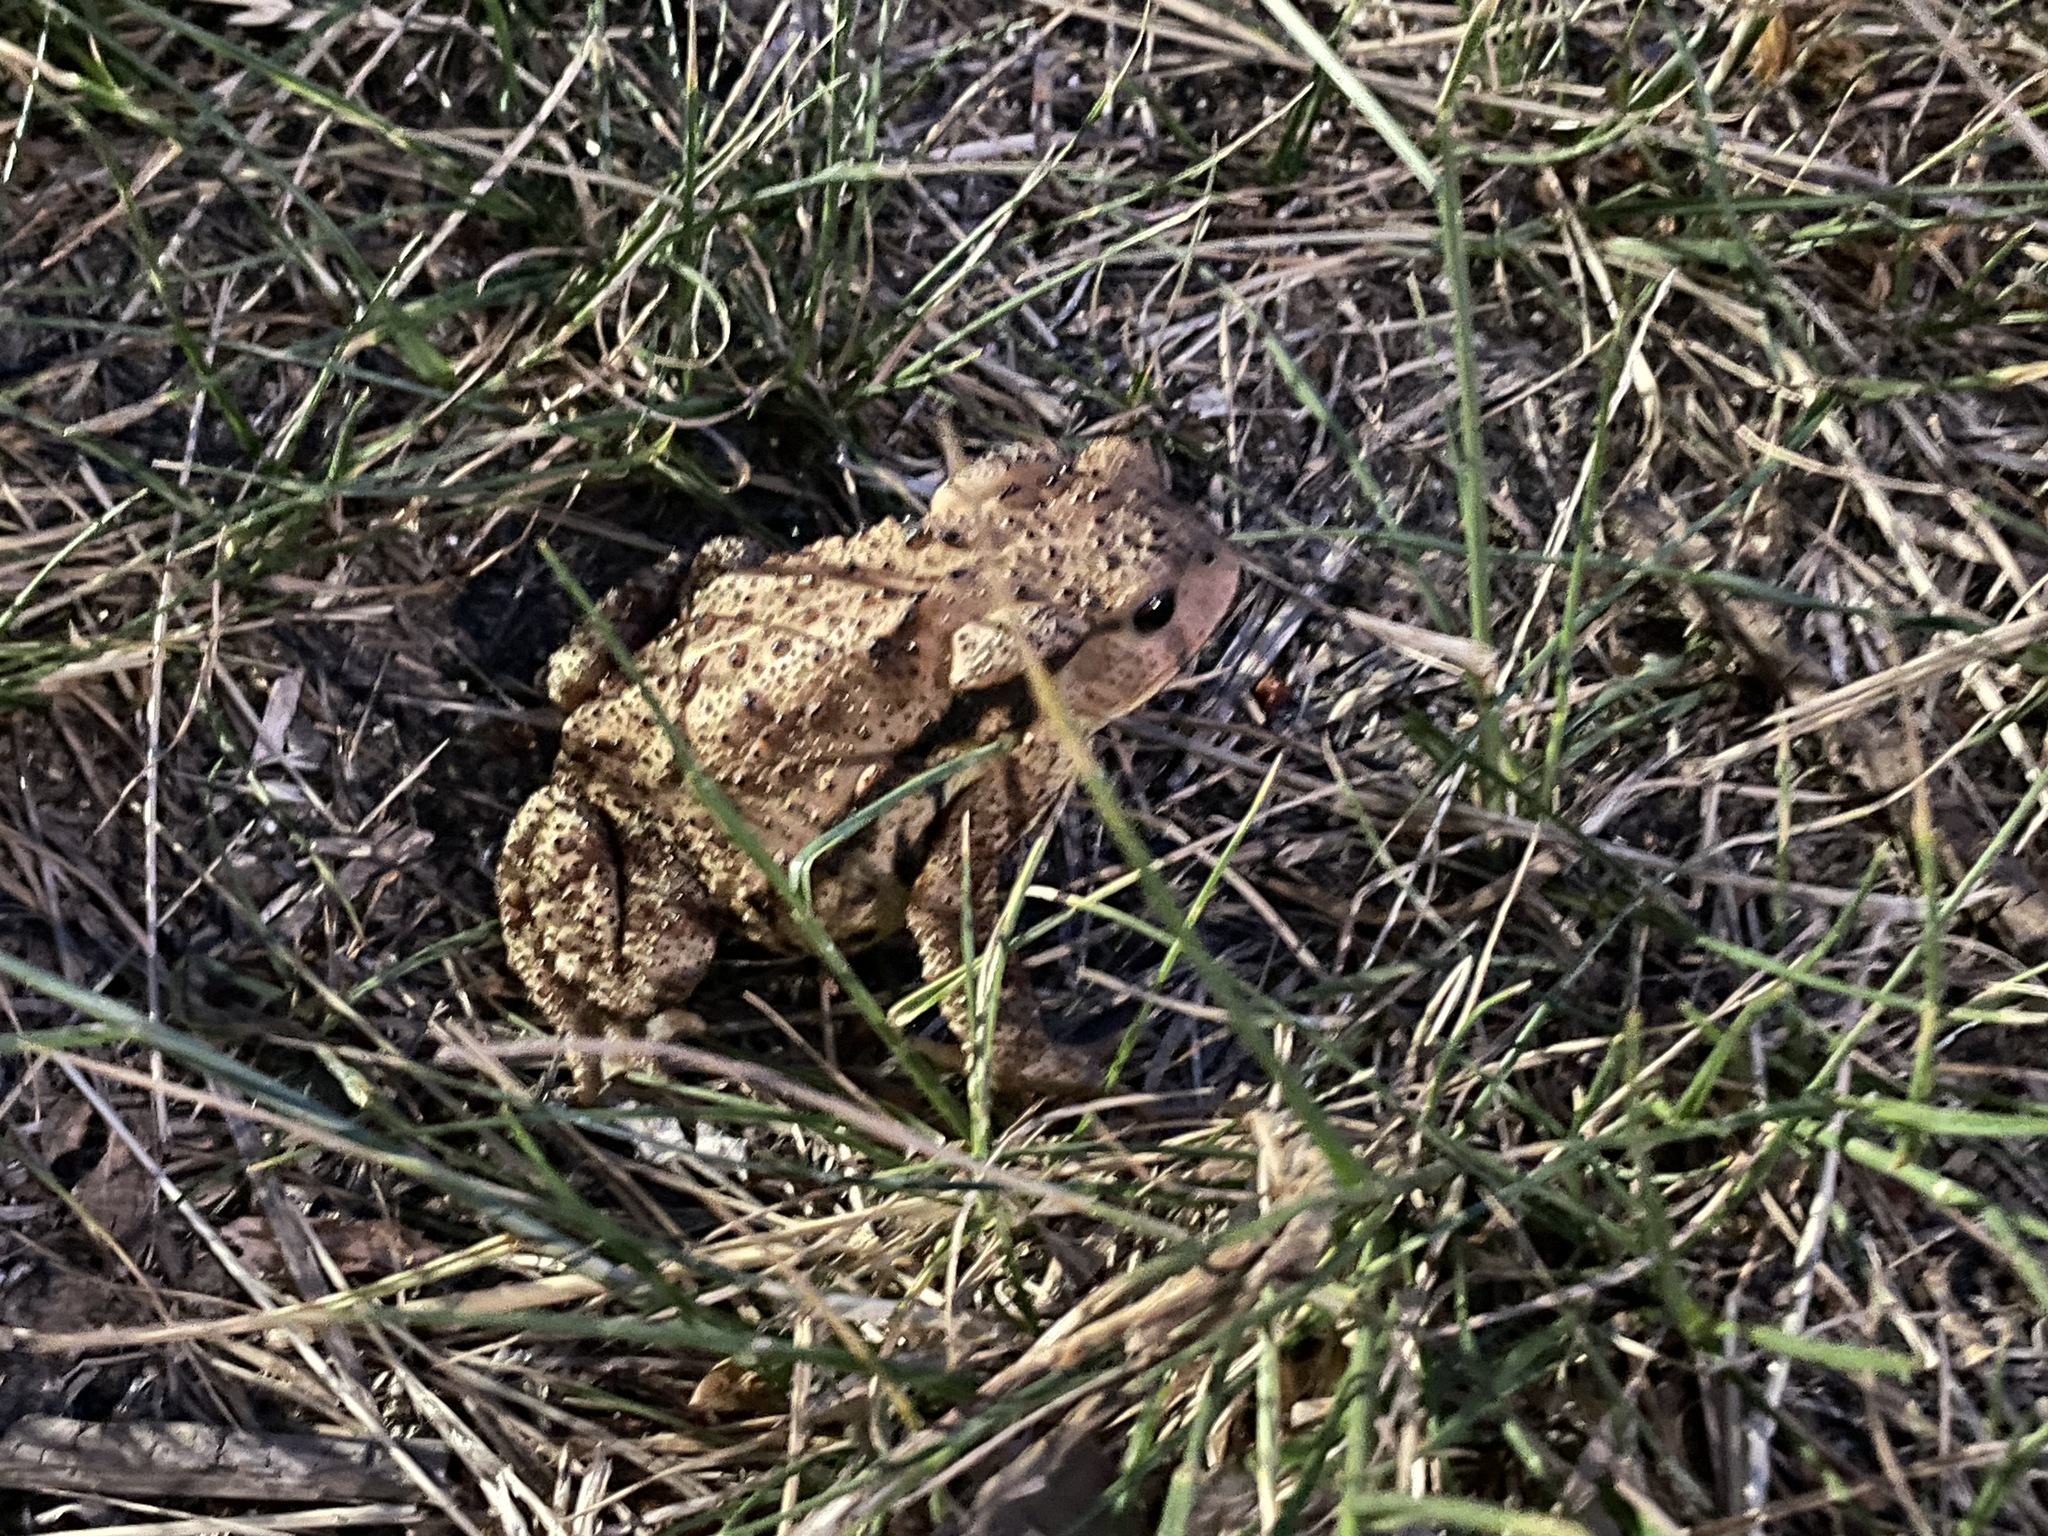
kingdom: Animalia
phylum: Chordata
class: Amphibia
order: Anura
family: Bufonidae
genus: Bufo
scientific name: Bufo gargarizans
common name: Asiatic toad
